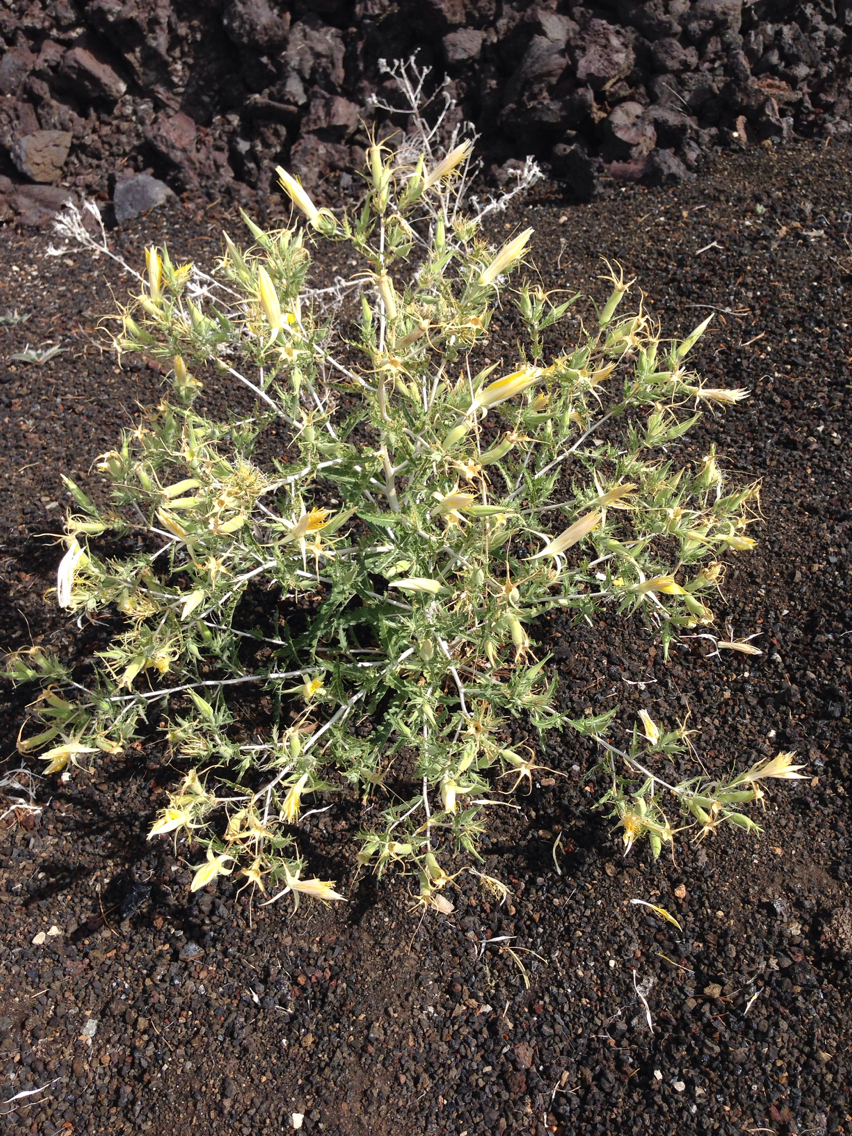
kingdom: Plantae
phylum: Tracheophyta
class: Magnoliopsida
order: Cornales
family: Loasaceae
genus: Mentzelia
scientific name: Mentzelia laevicaulis
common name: Smooth-stem blazingstar
